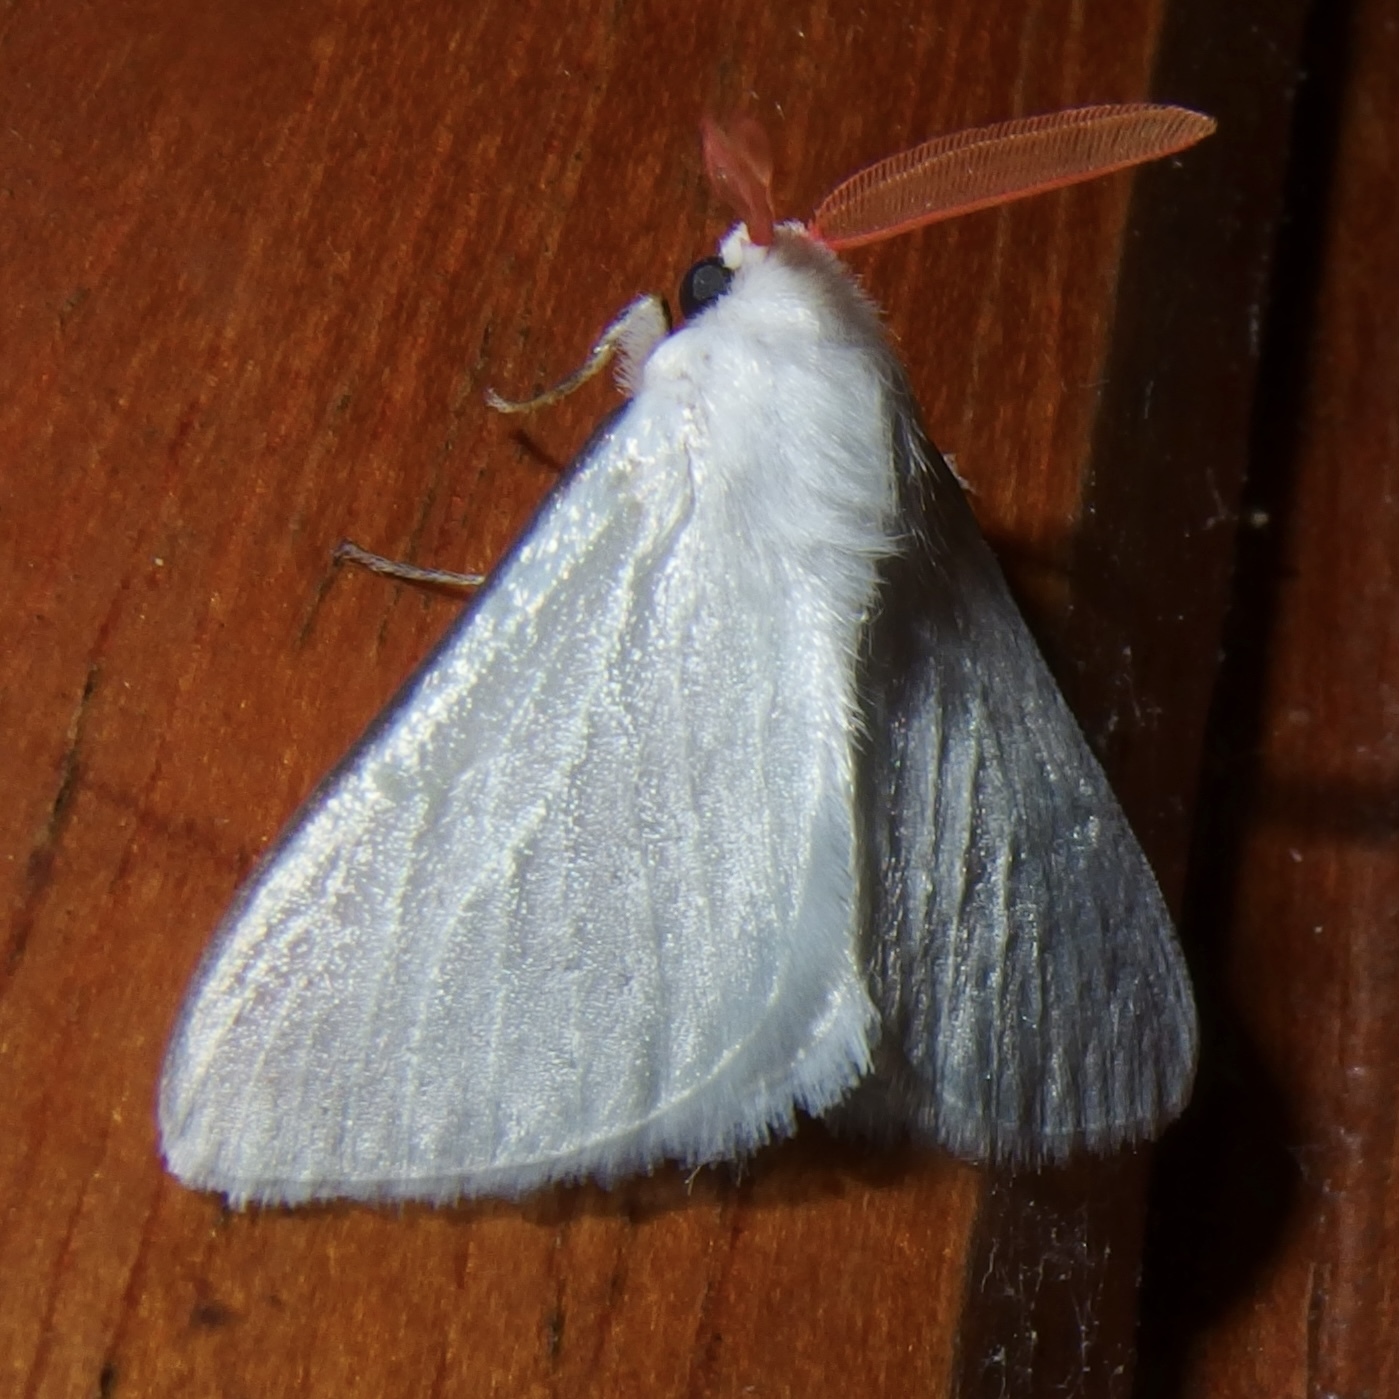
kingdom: Animalia
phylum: Arthropoda
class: Insecta
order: Lepidoptera
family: Megalopygidae
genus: Aithorape
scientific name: Aithorape roseicornis
